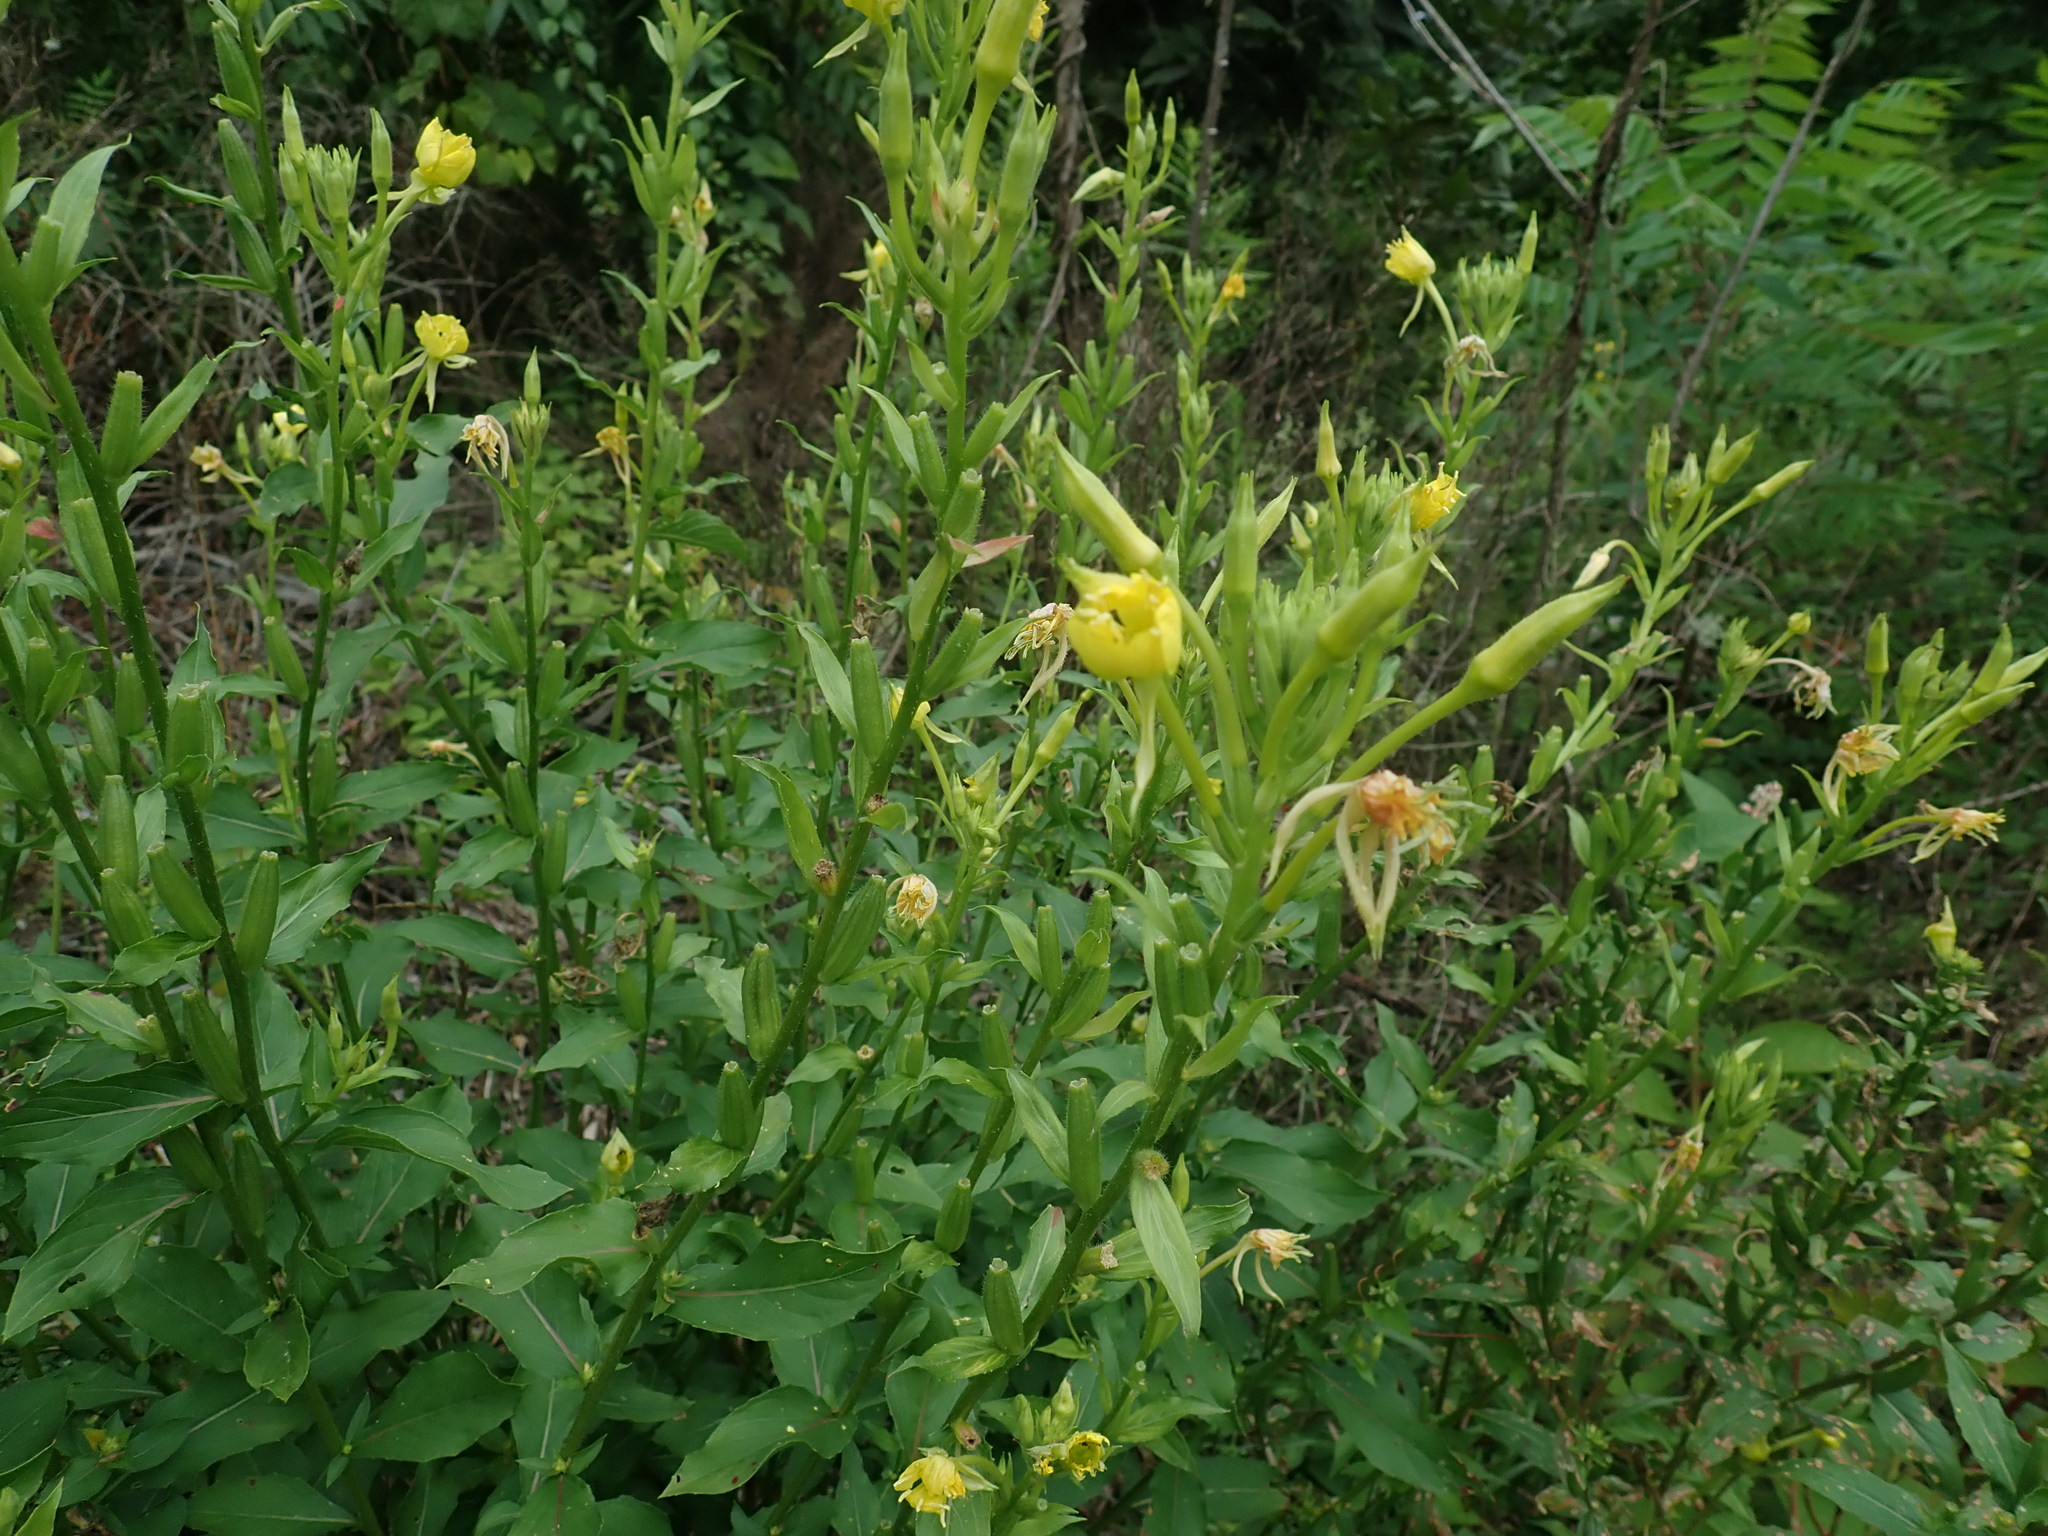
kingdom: Plantae
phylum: Tracheophyta
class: Magnoliopsida
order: Myrtales
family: Onagraceae
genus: Oenothera
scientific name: Oenothera biennis
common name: Common evening-primrose
